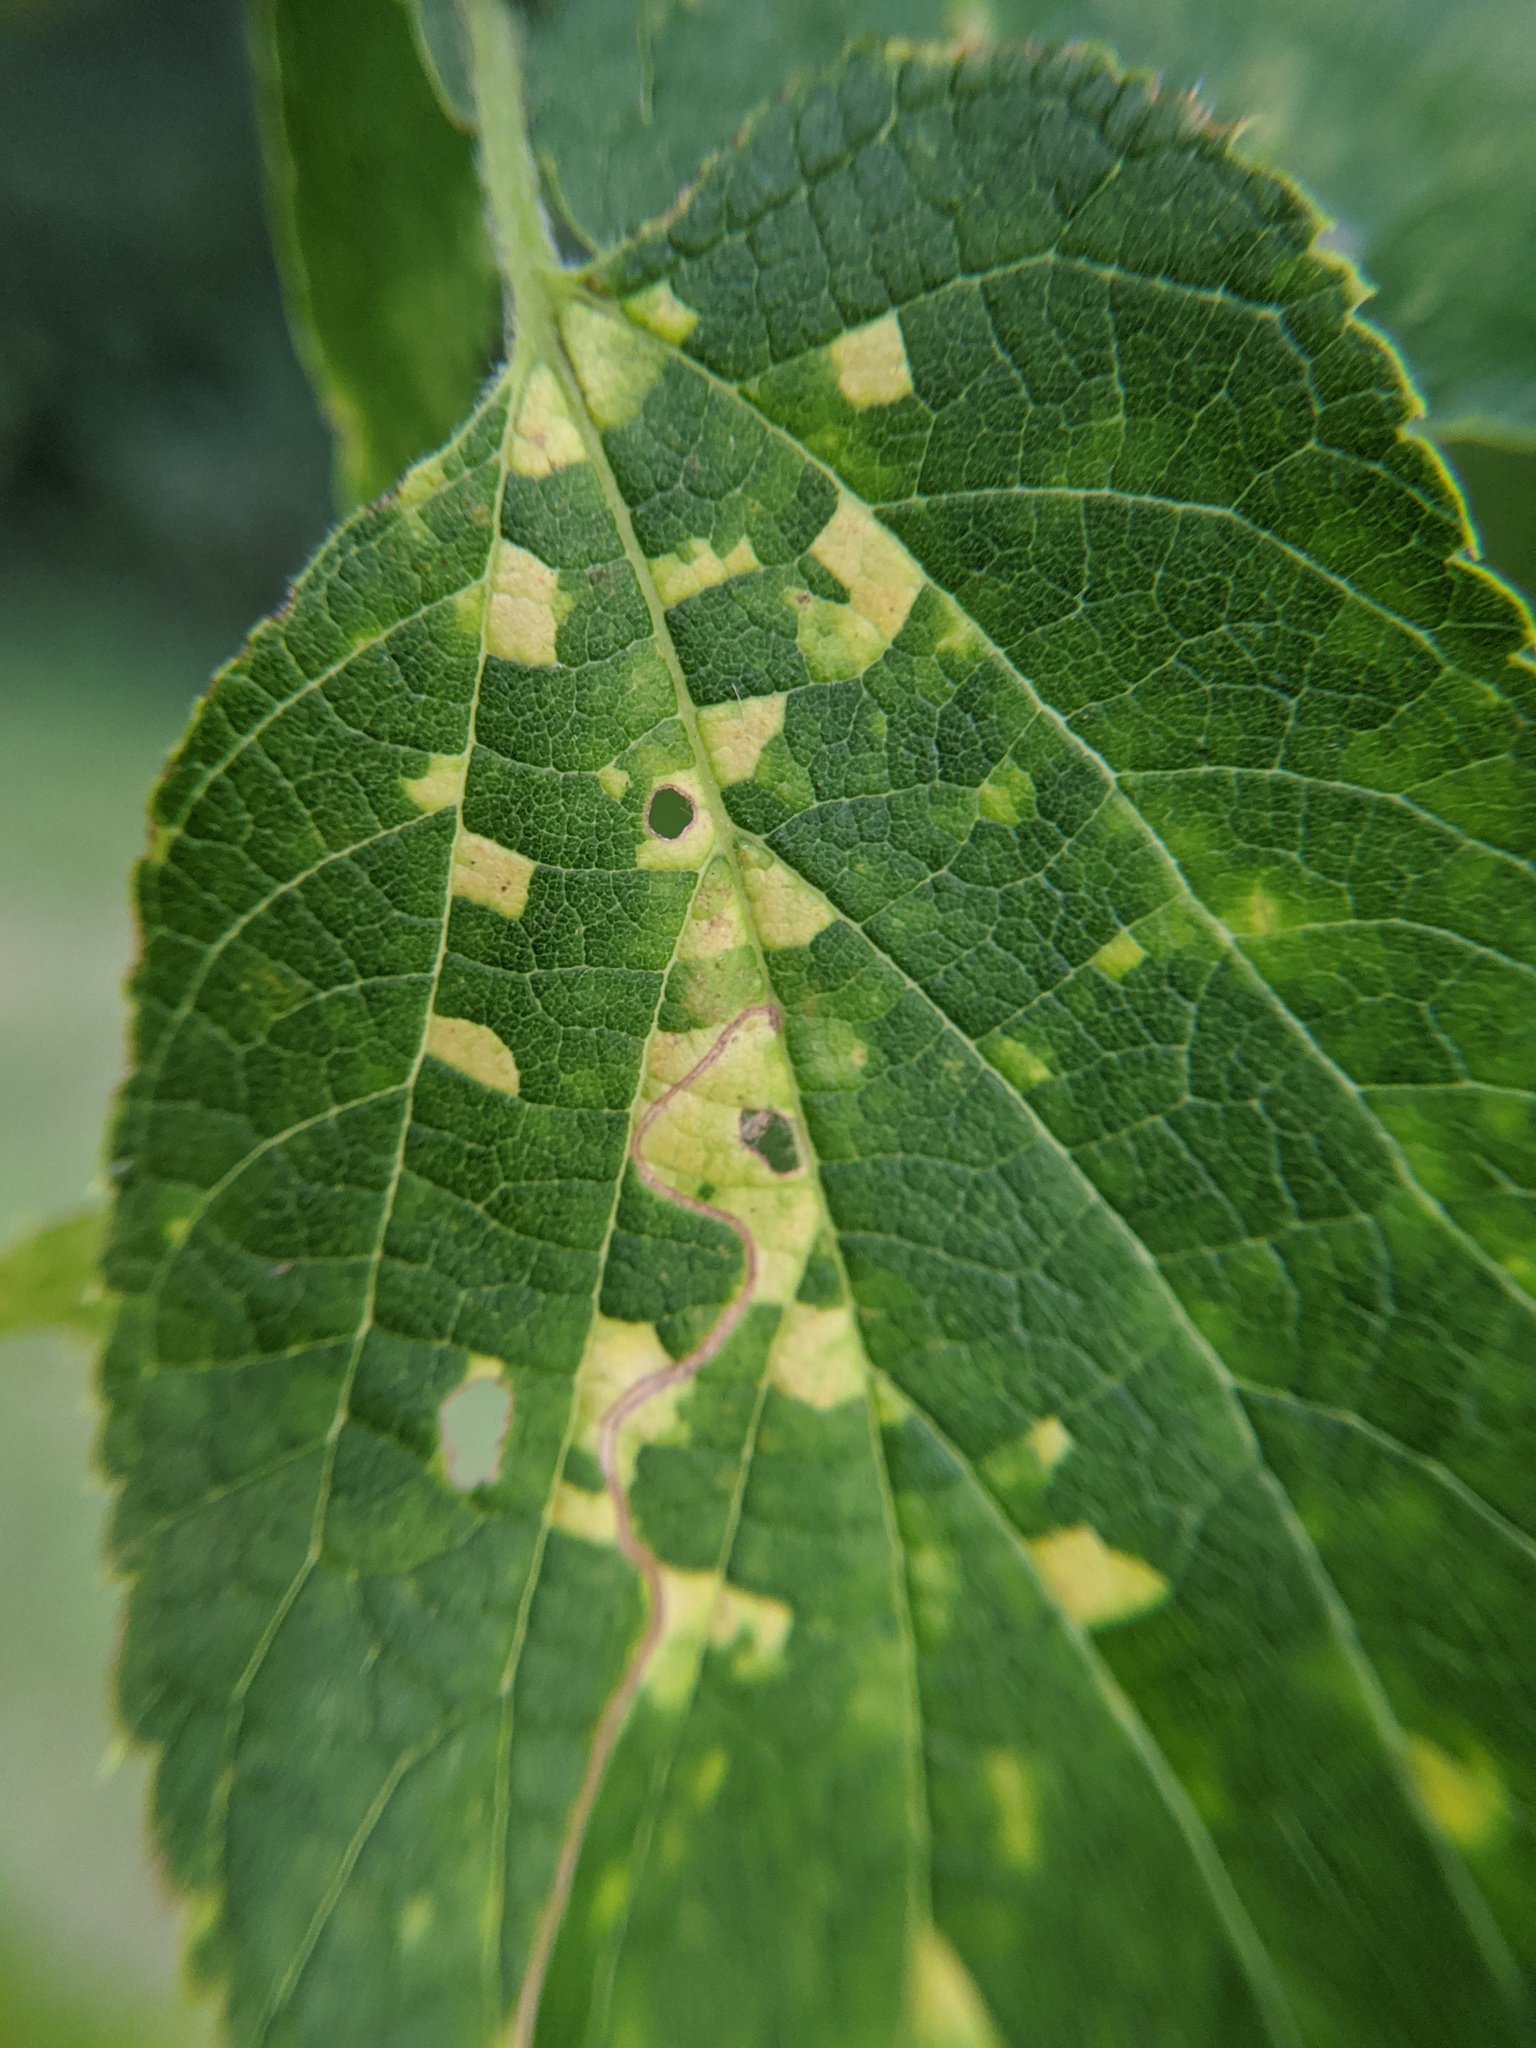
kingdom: Viruses
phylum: Kitrinoviricota
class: Alsuviricetes
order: Martellivirales
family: Closteroviridae
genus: Ampelovirus
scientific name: Ampelovirus
